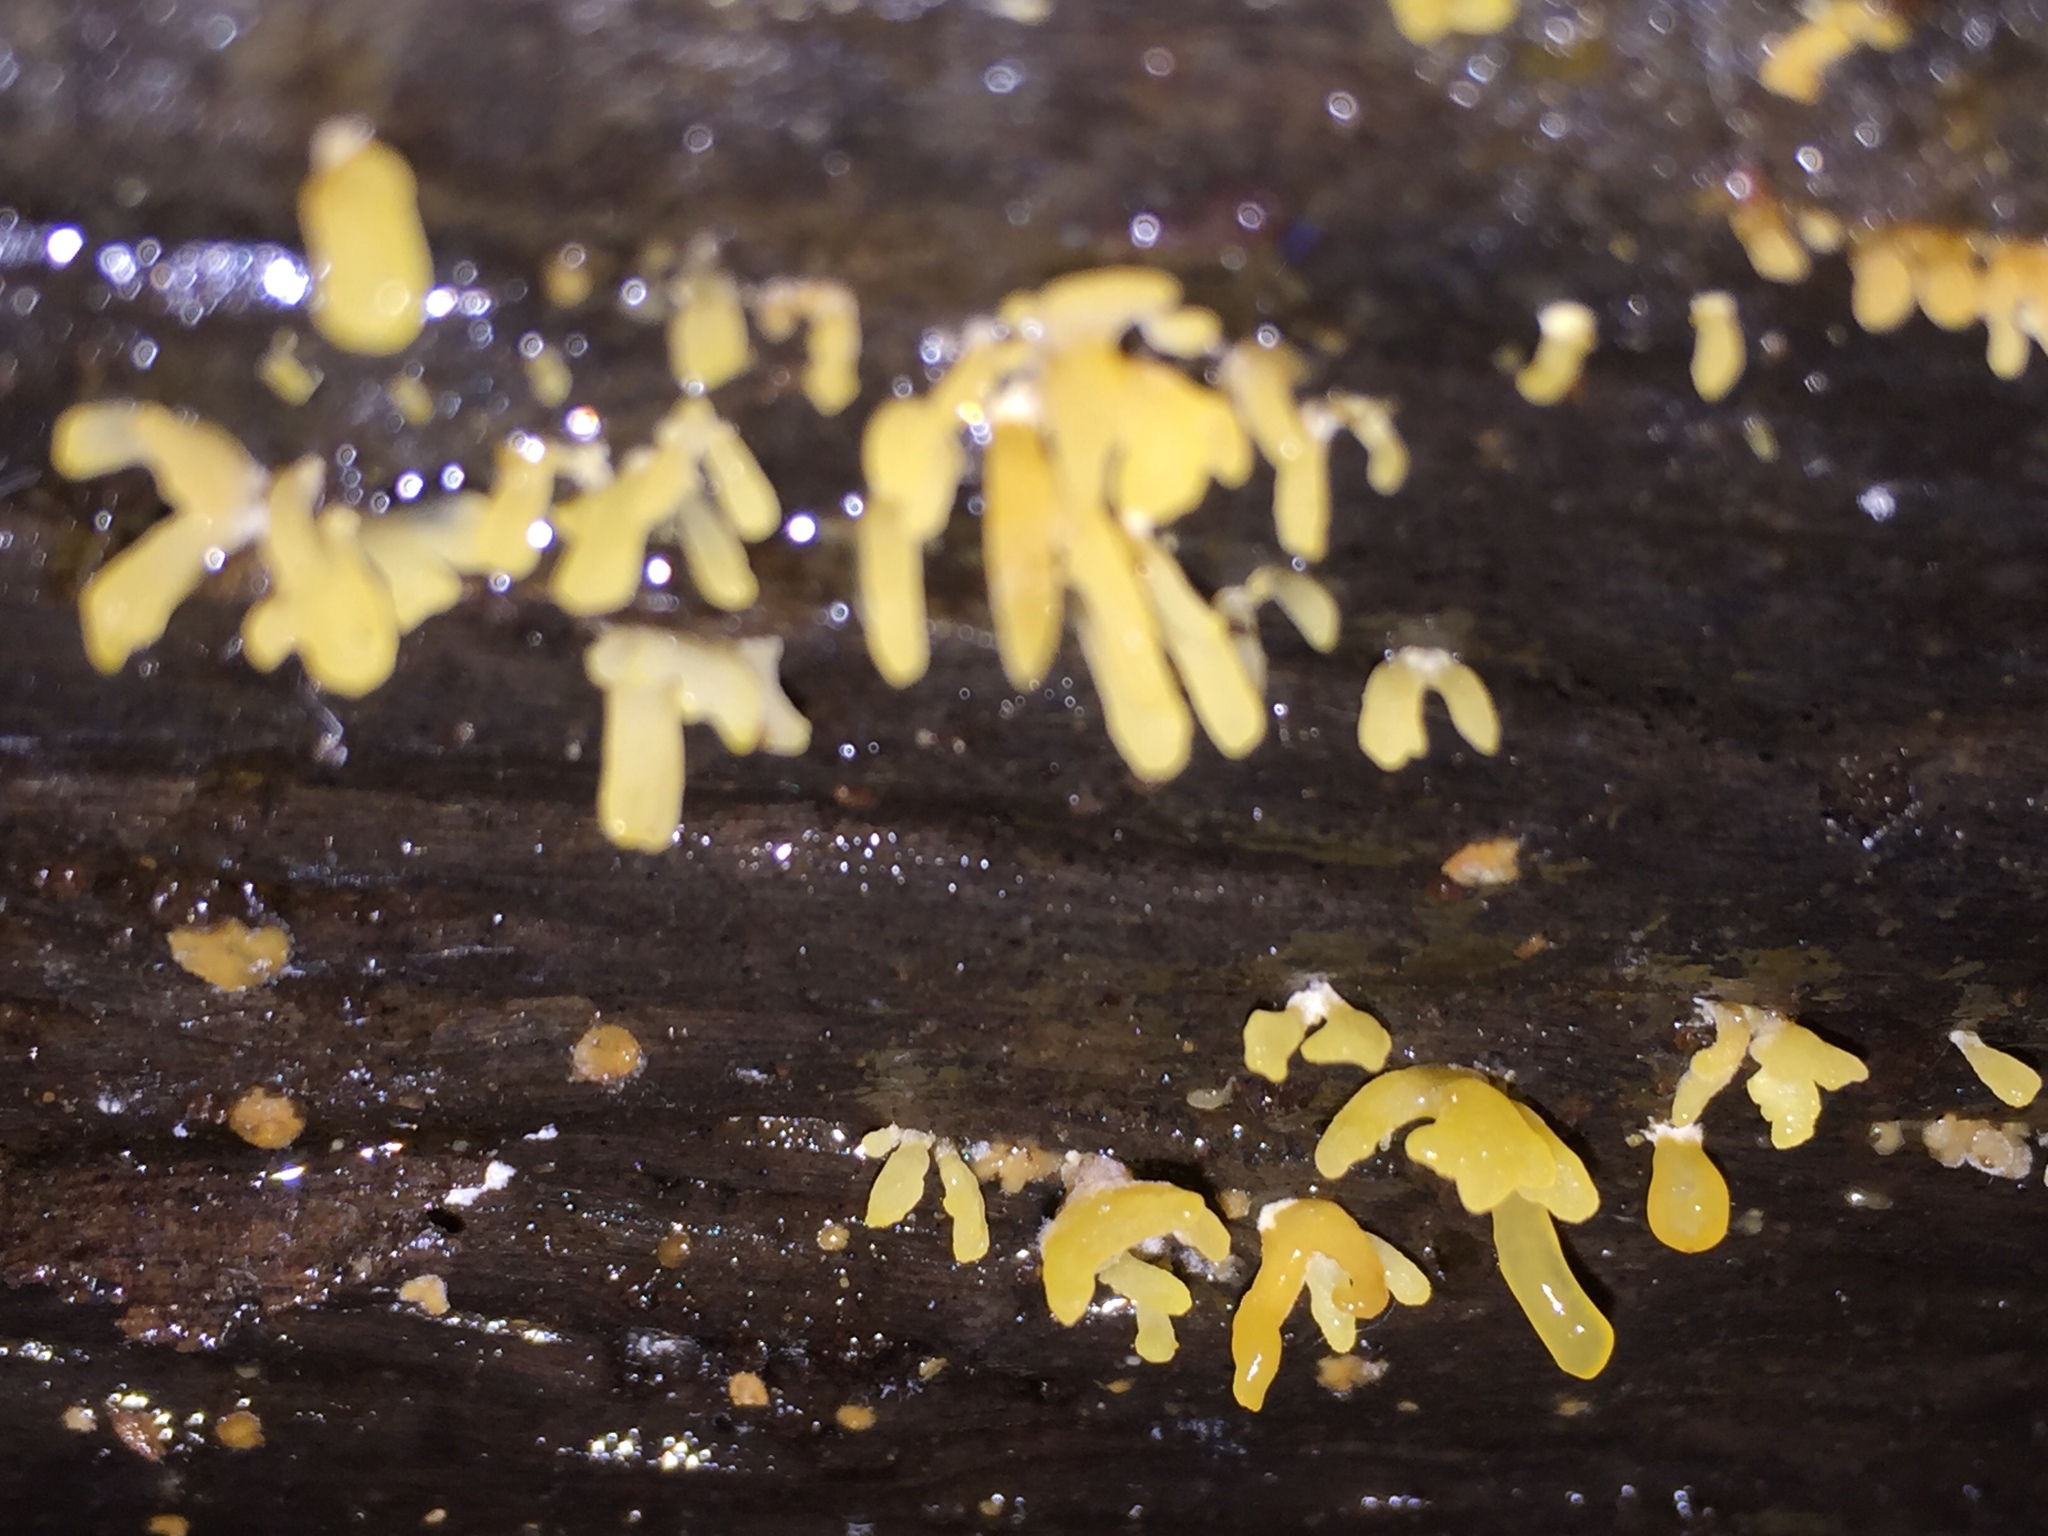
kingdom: Fungi
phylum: Basidiomycota
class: Dacrymycetes
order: Dacrymycetales
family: Dacrymycetaceae
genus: Calocera
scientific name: Calocera cornea
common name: Small stagshorn
